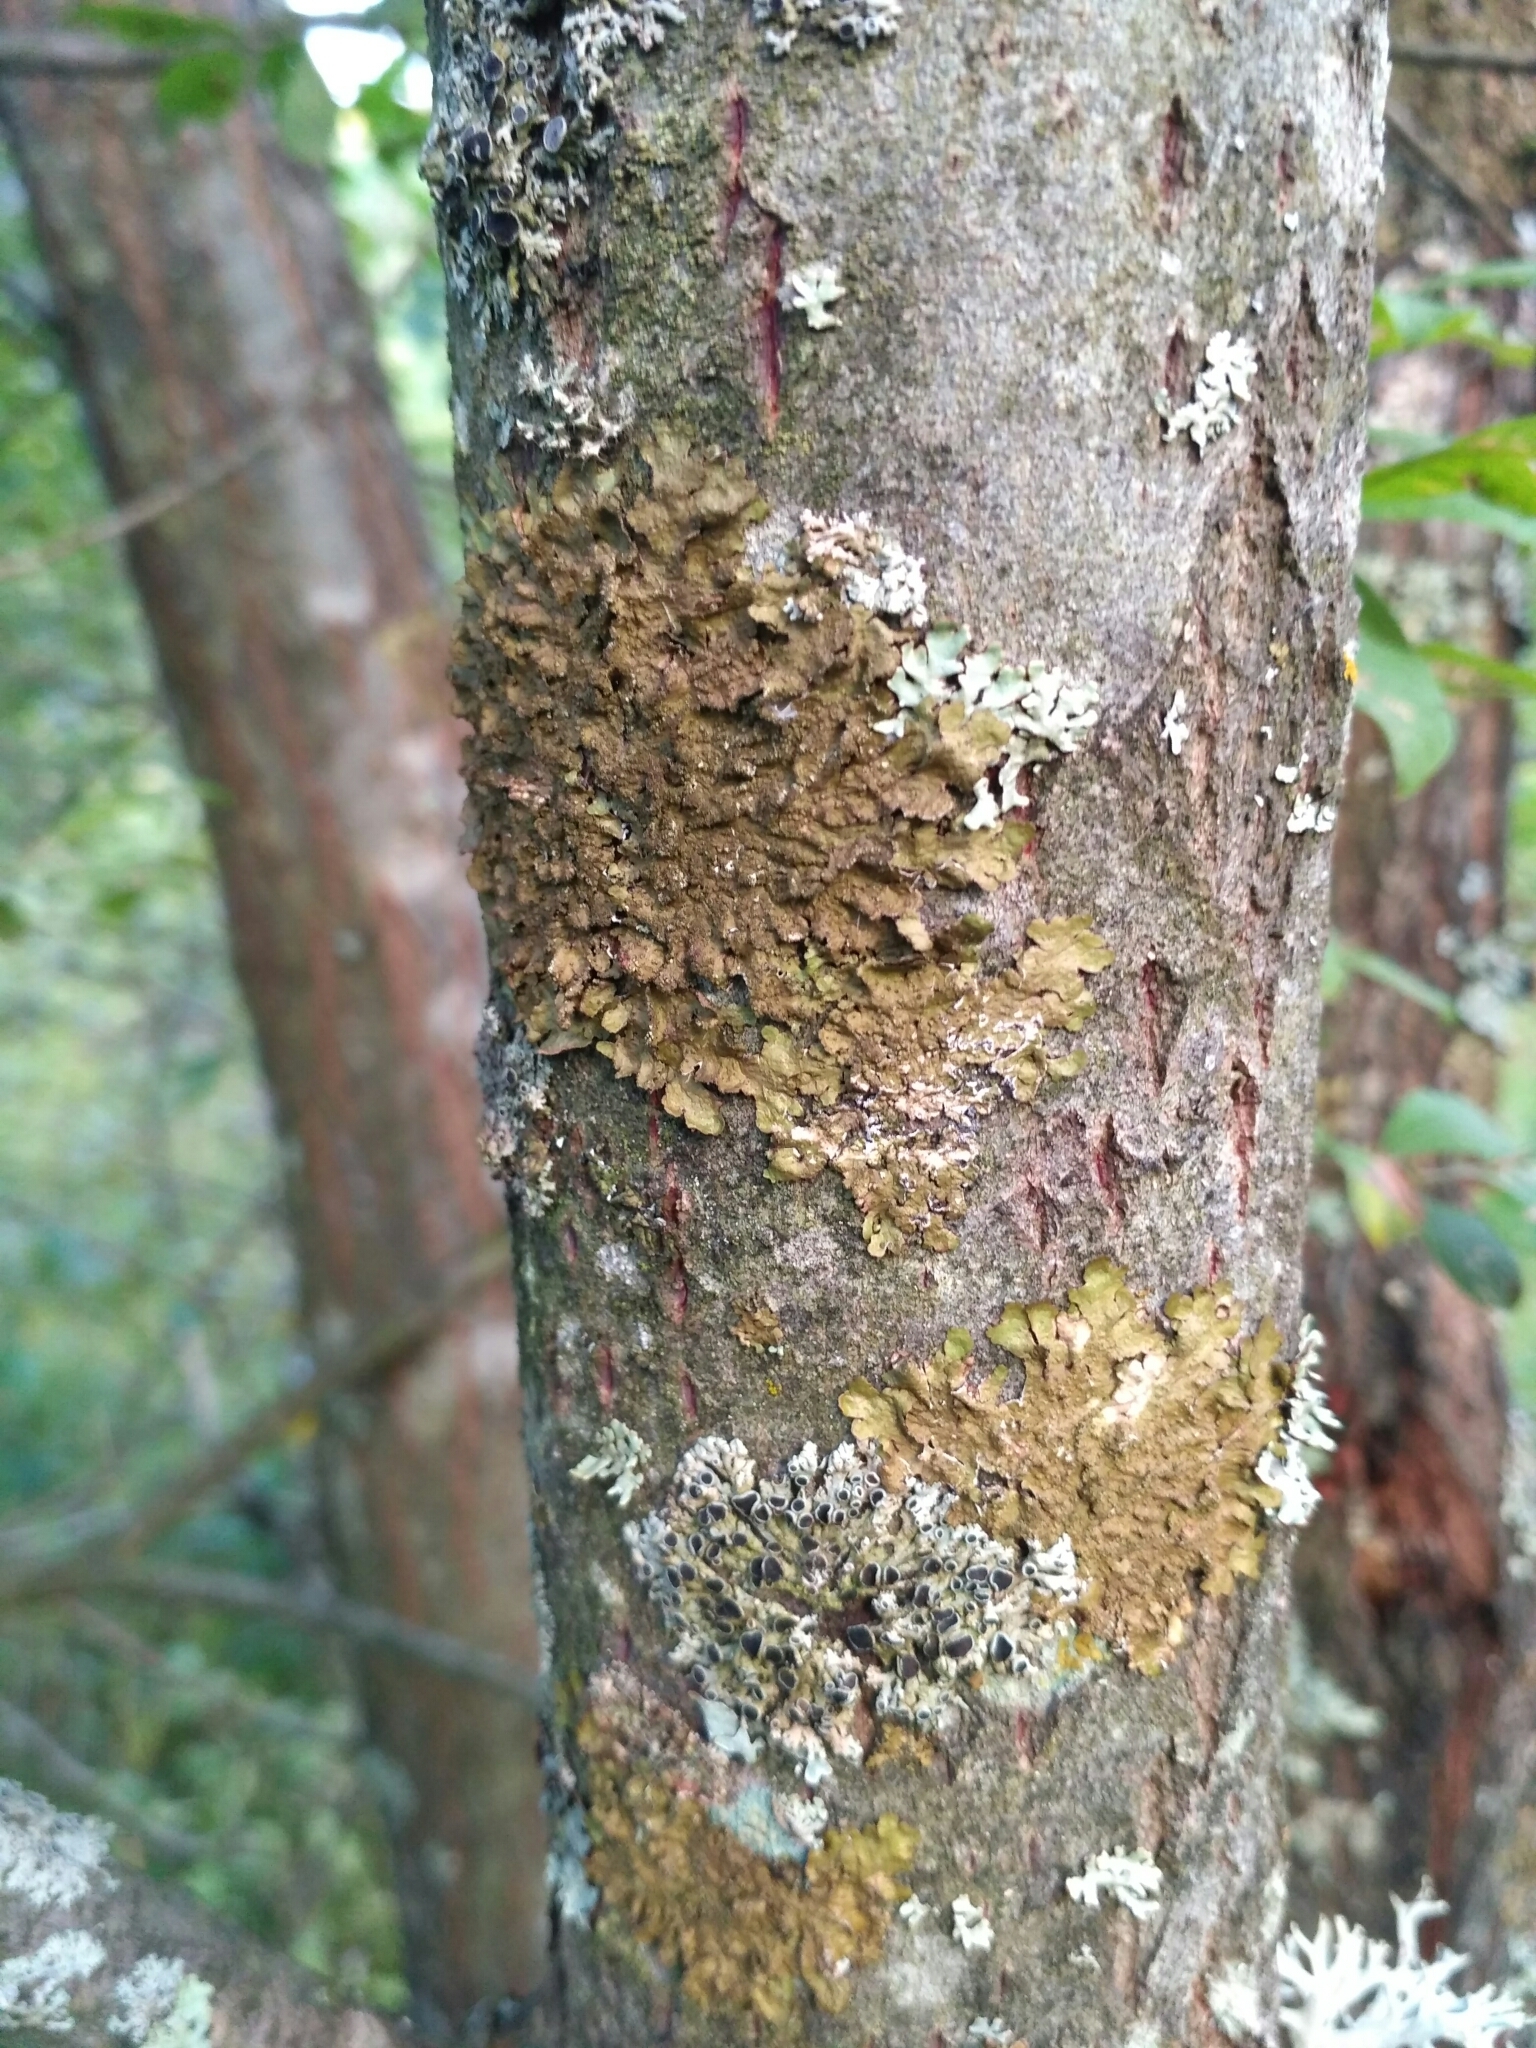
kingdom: Fungi
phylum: Ascomycota
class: Lecanoromycetes
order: Lecanorales
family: Parmeliaceae
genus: Melanelixia
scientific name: Melanelixia glabratula
